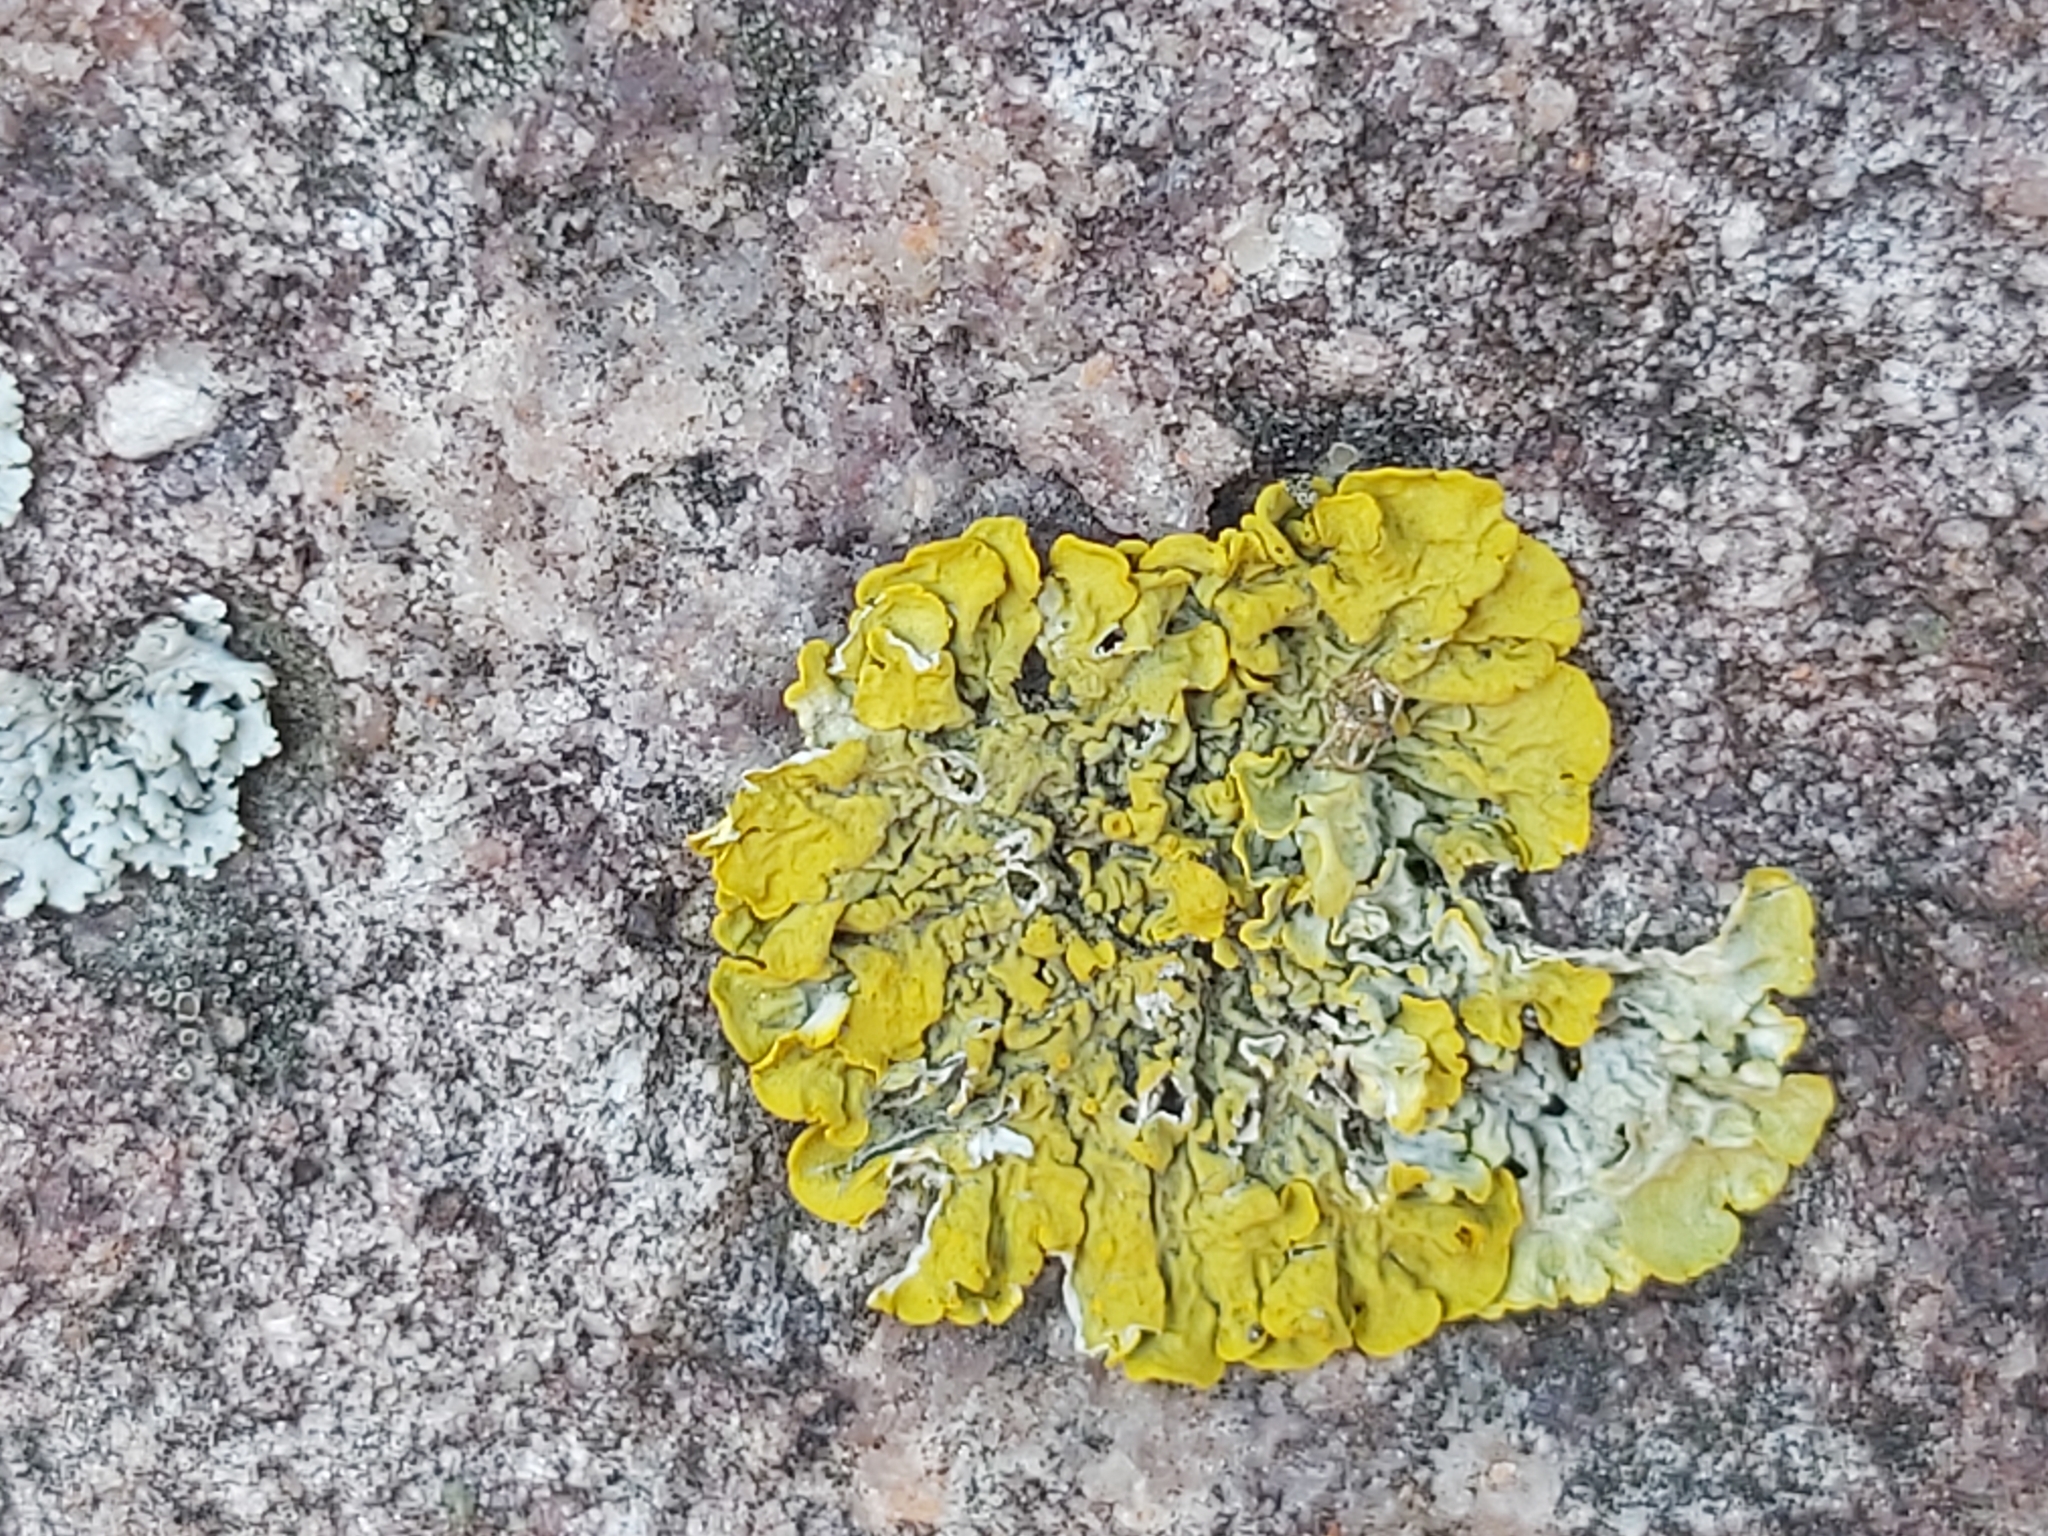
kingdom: Fungi
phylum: Ascomycota
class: Lecanoromycetes
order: Teloschistales
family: Teloschistaceae
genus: Xanthoria
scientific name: Xanthoria parietina
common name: Common orange lichen
